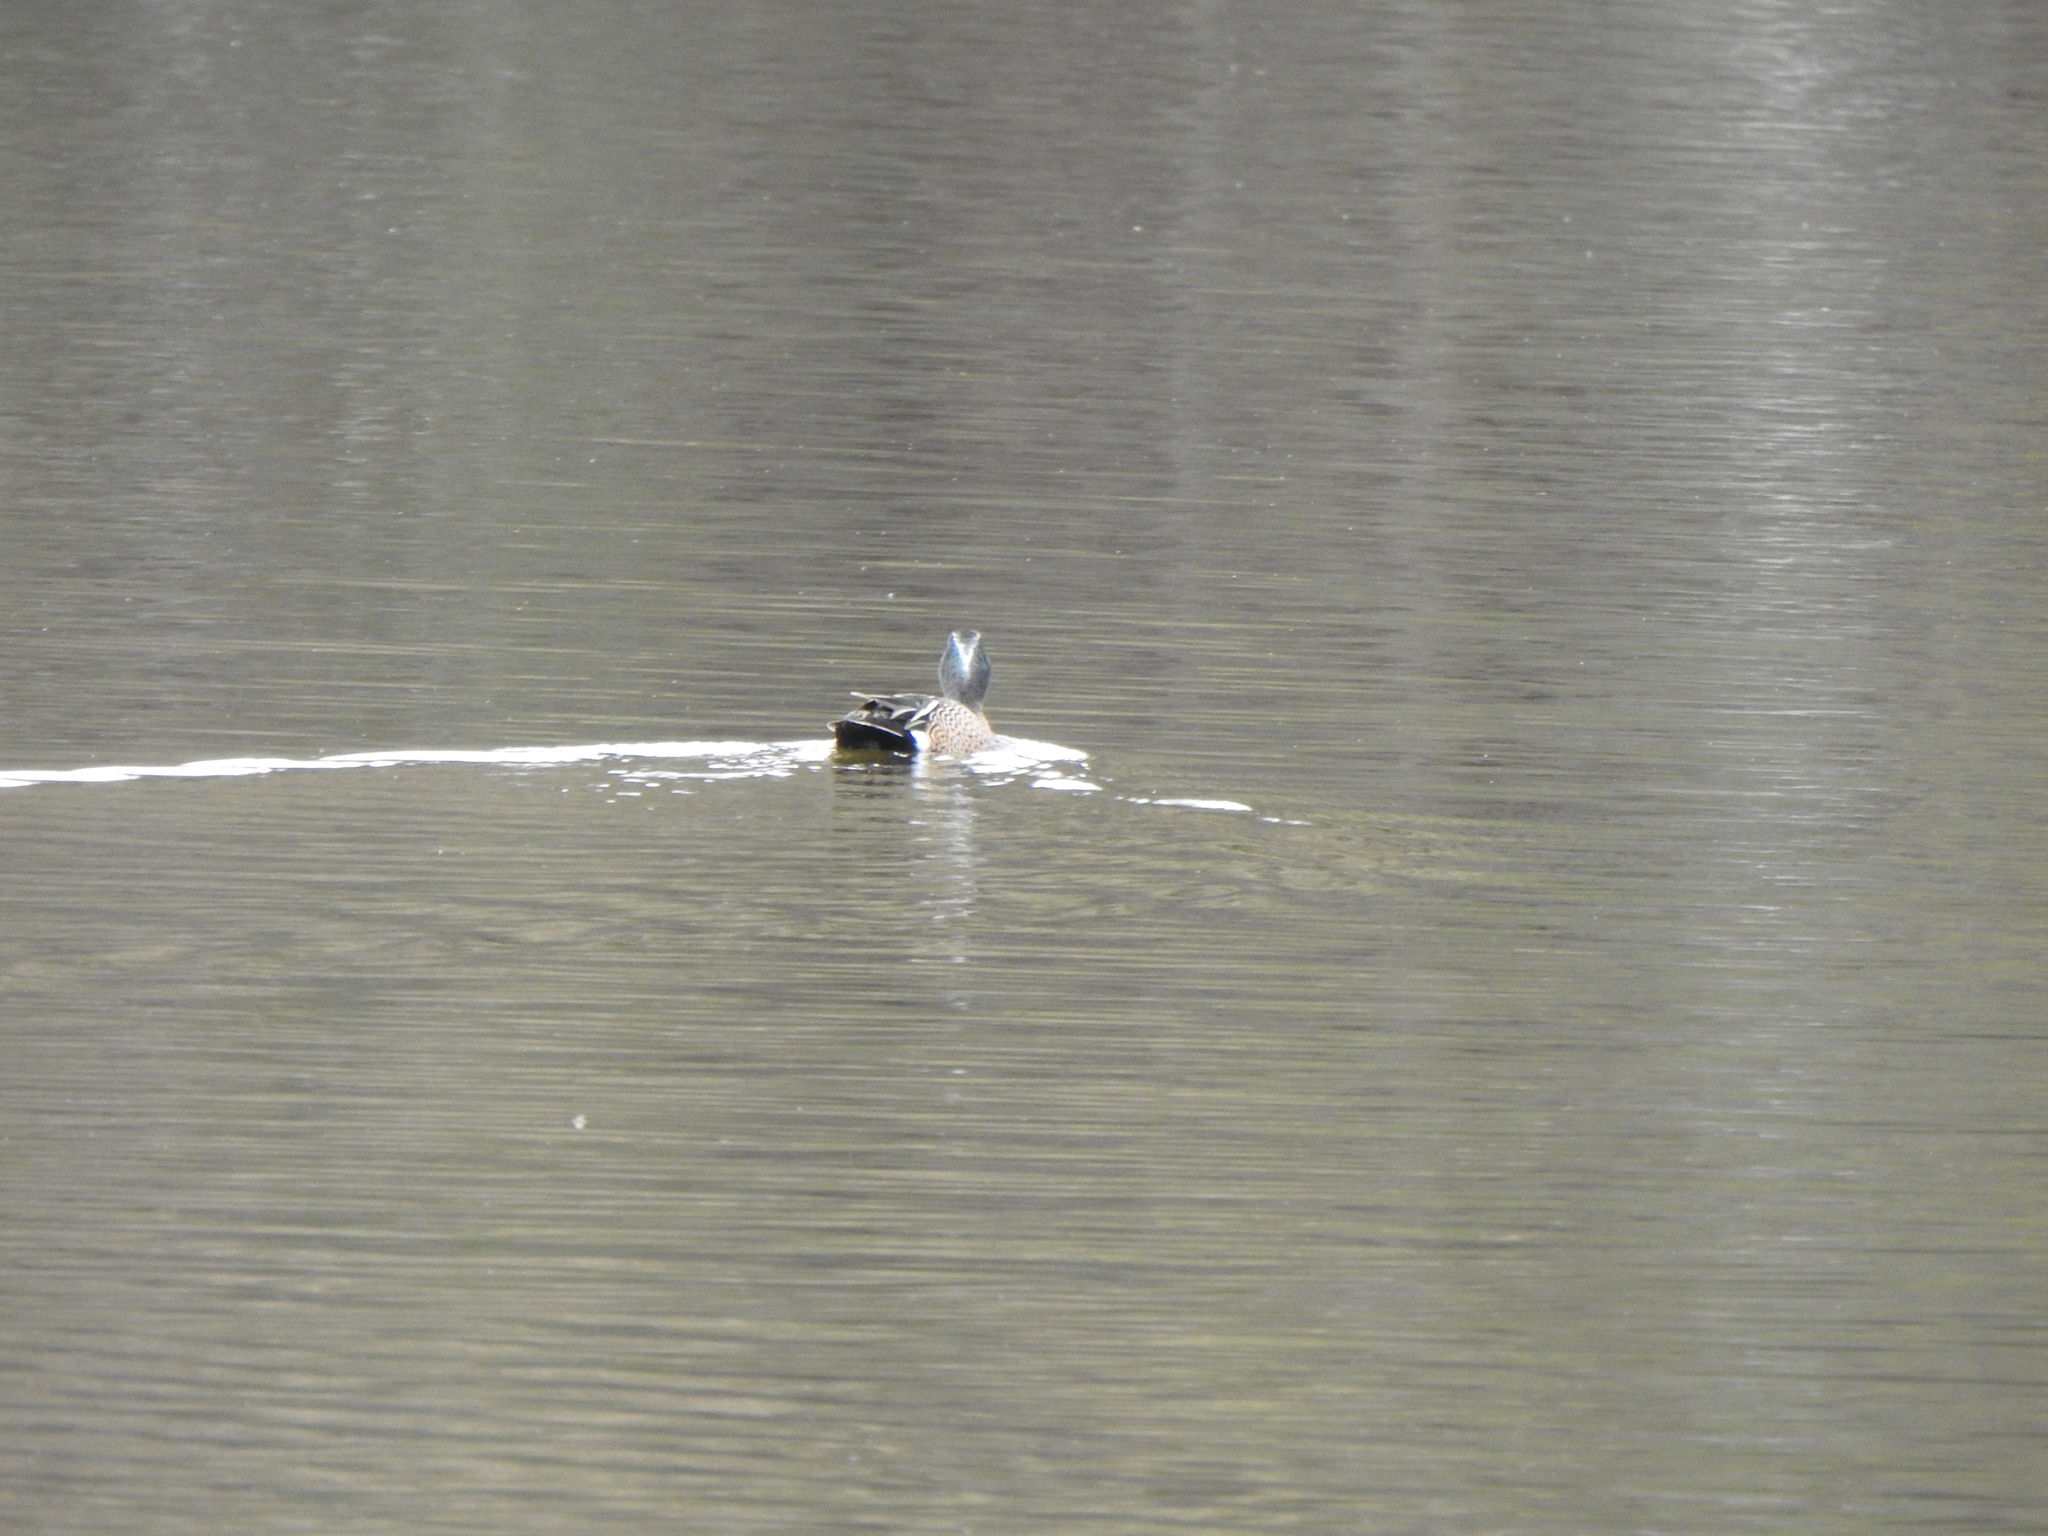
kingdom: Animalia
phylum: Chordata
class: Aves
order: Anseriformes
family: Anatidae
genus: Spatula
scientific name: Spatula discors
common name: Blue-winged teal
